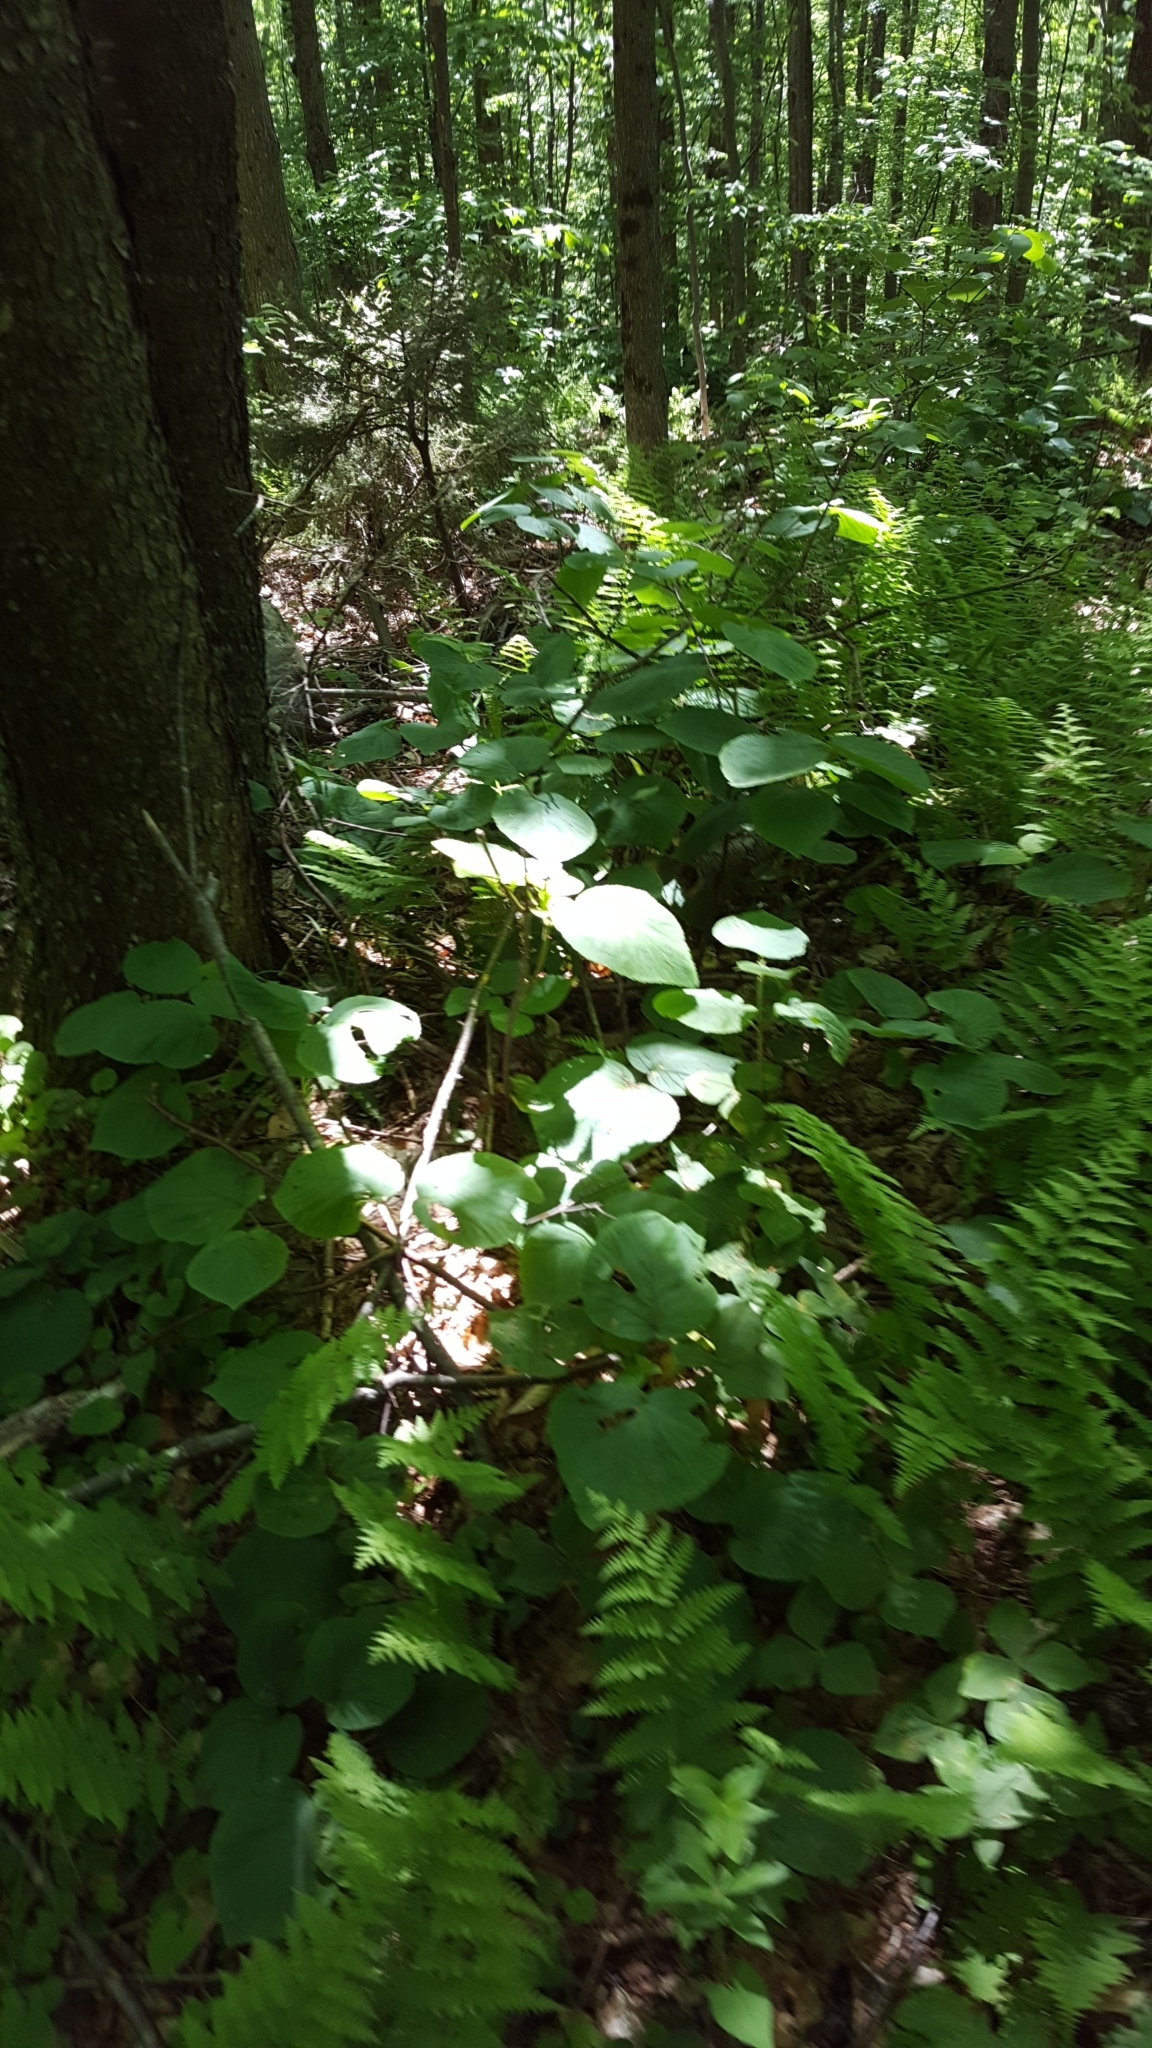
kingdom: Plantae
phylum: Tracheophyta
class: Magnoliopsida
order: Dipsacales
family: Viburnaceae
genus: Viburnum
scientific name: Viburnum lantanoides
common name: Hobblebush
